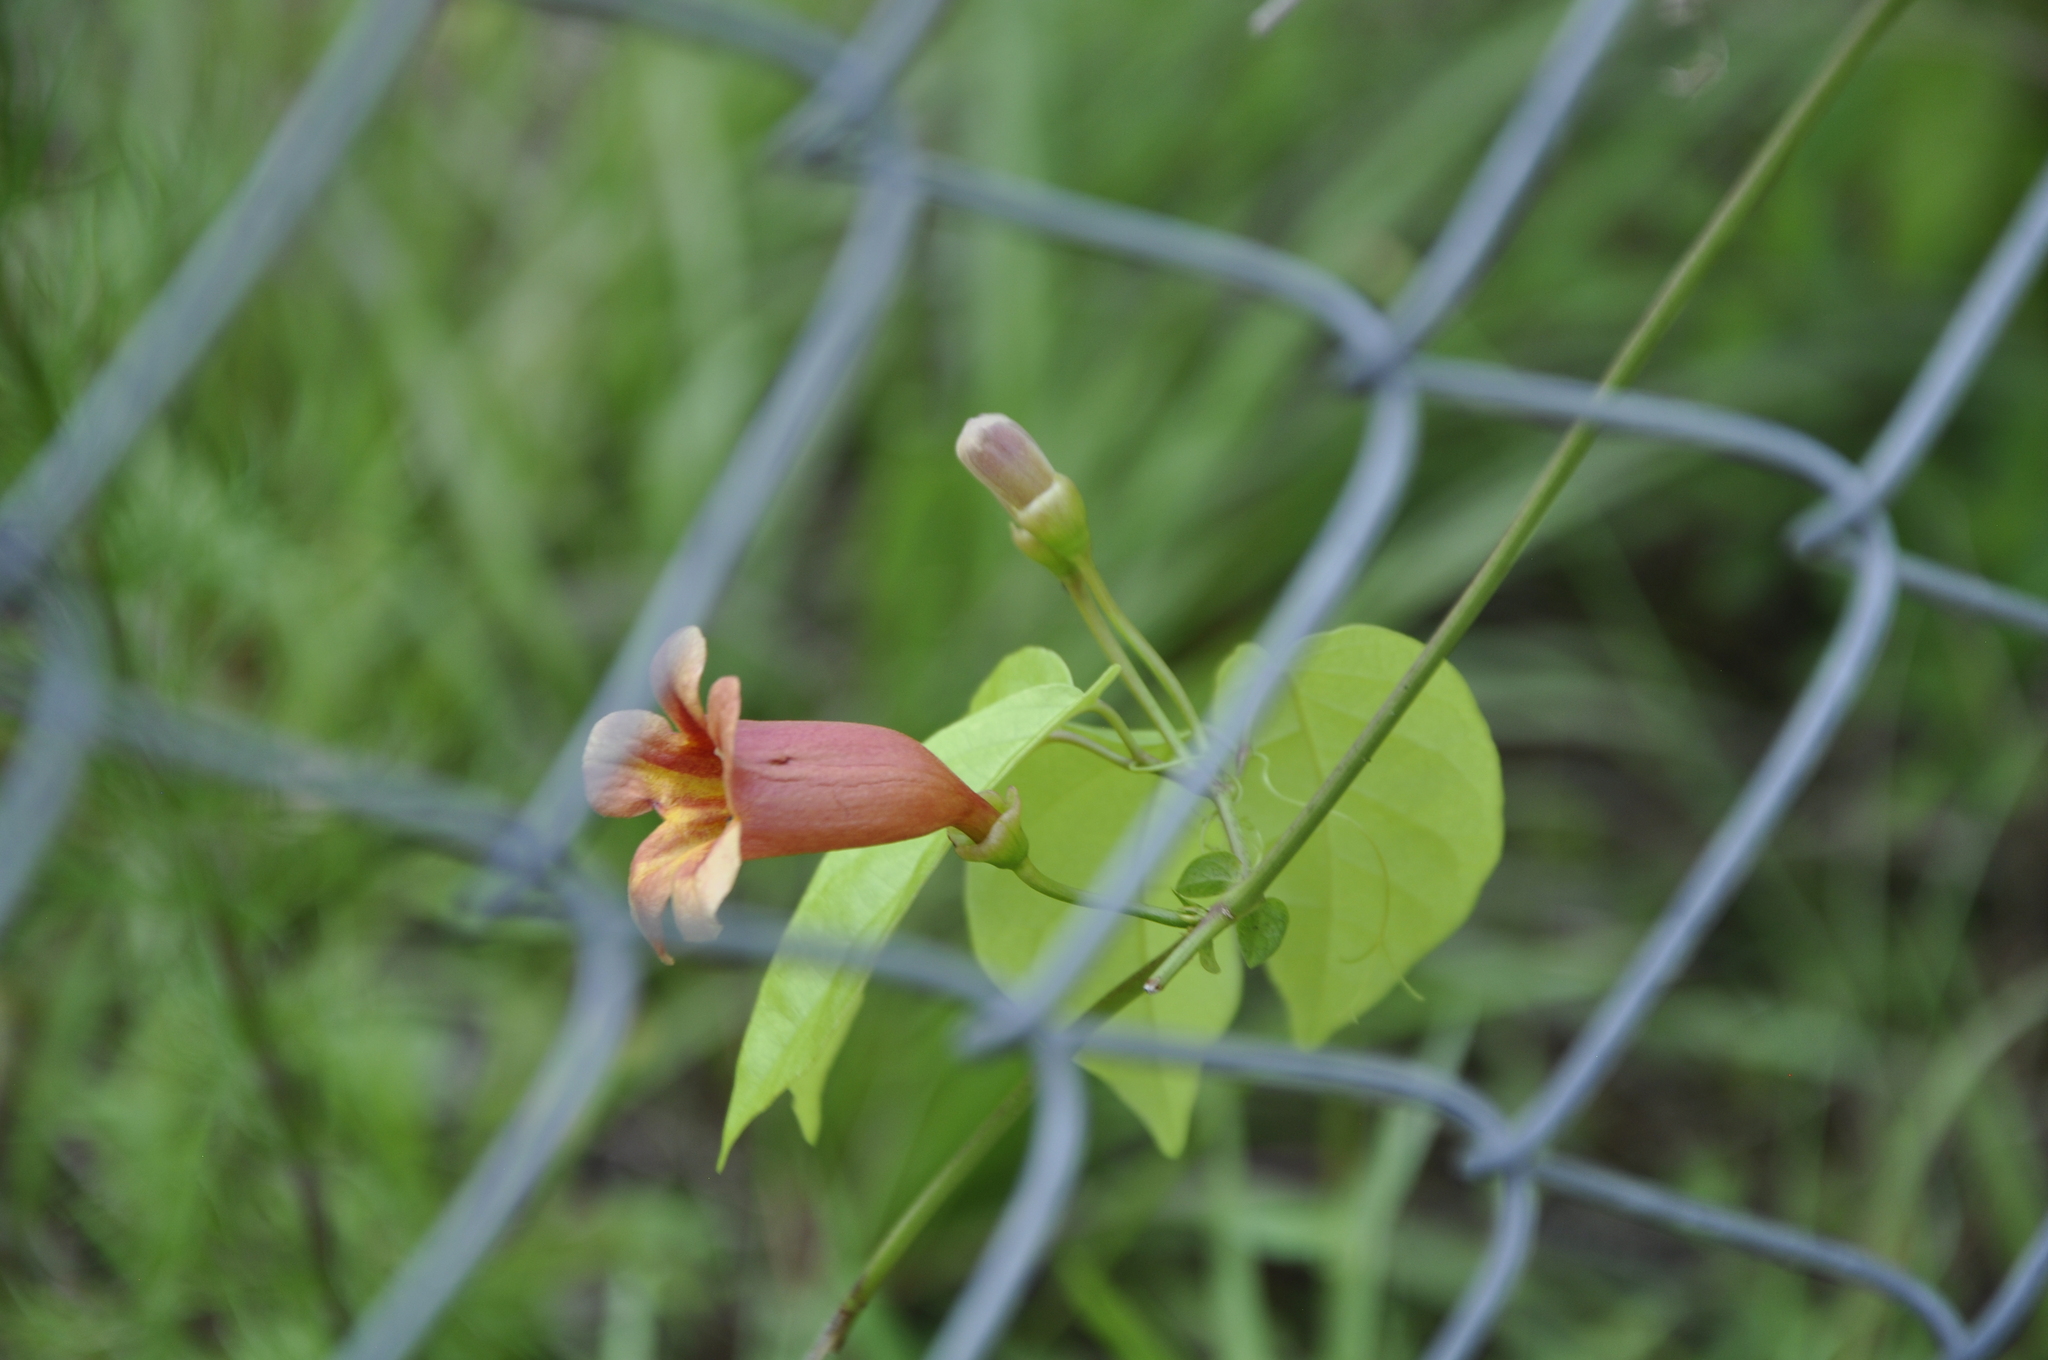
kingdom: Plantae
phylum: Tracheophyta
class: Magnoliopsida
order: Lamiales
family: Bignoniaceae
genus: Bignonia
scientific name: Bignonia capreolata
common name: Crossvine
